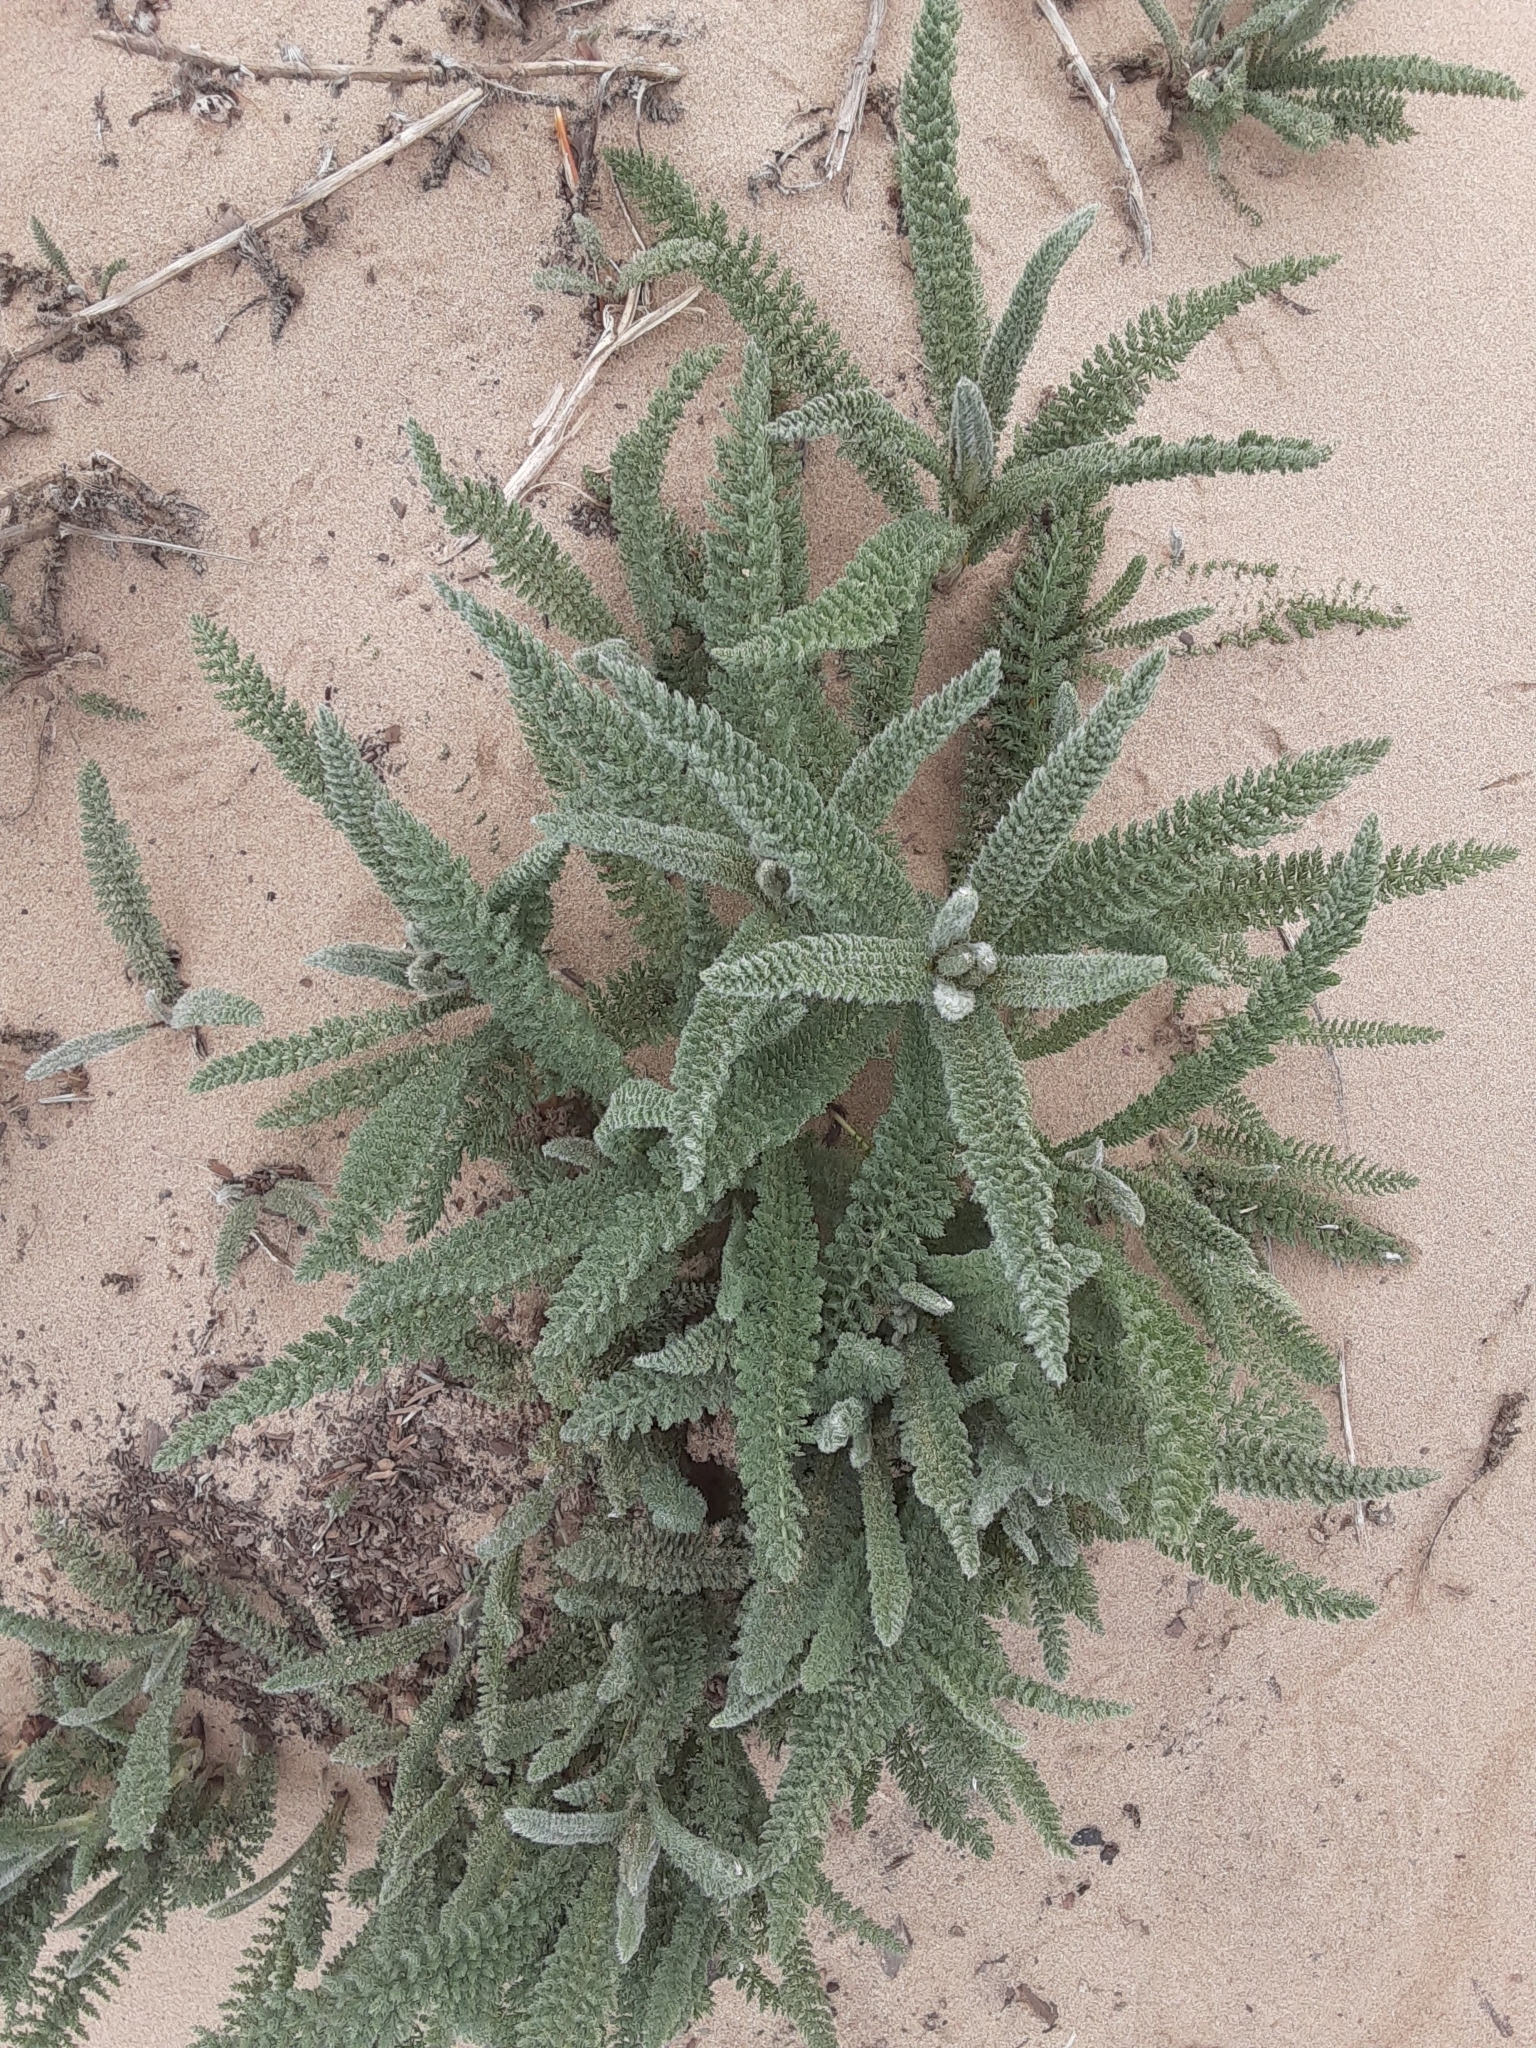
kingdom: Plantae
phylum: Tracheophyta
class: Magnoliopsida
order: Asterales
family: Asteraceae
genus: Achillea
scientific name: Achillea millefolium
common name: Yarrow
